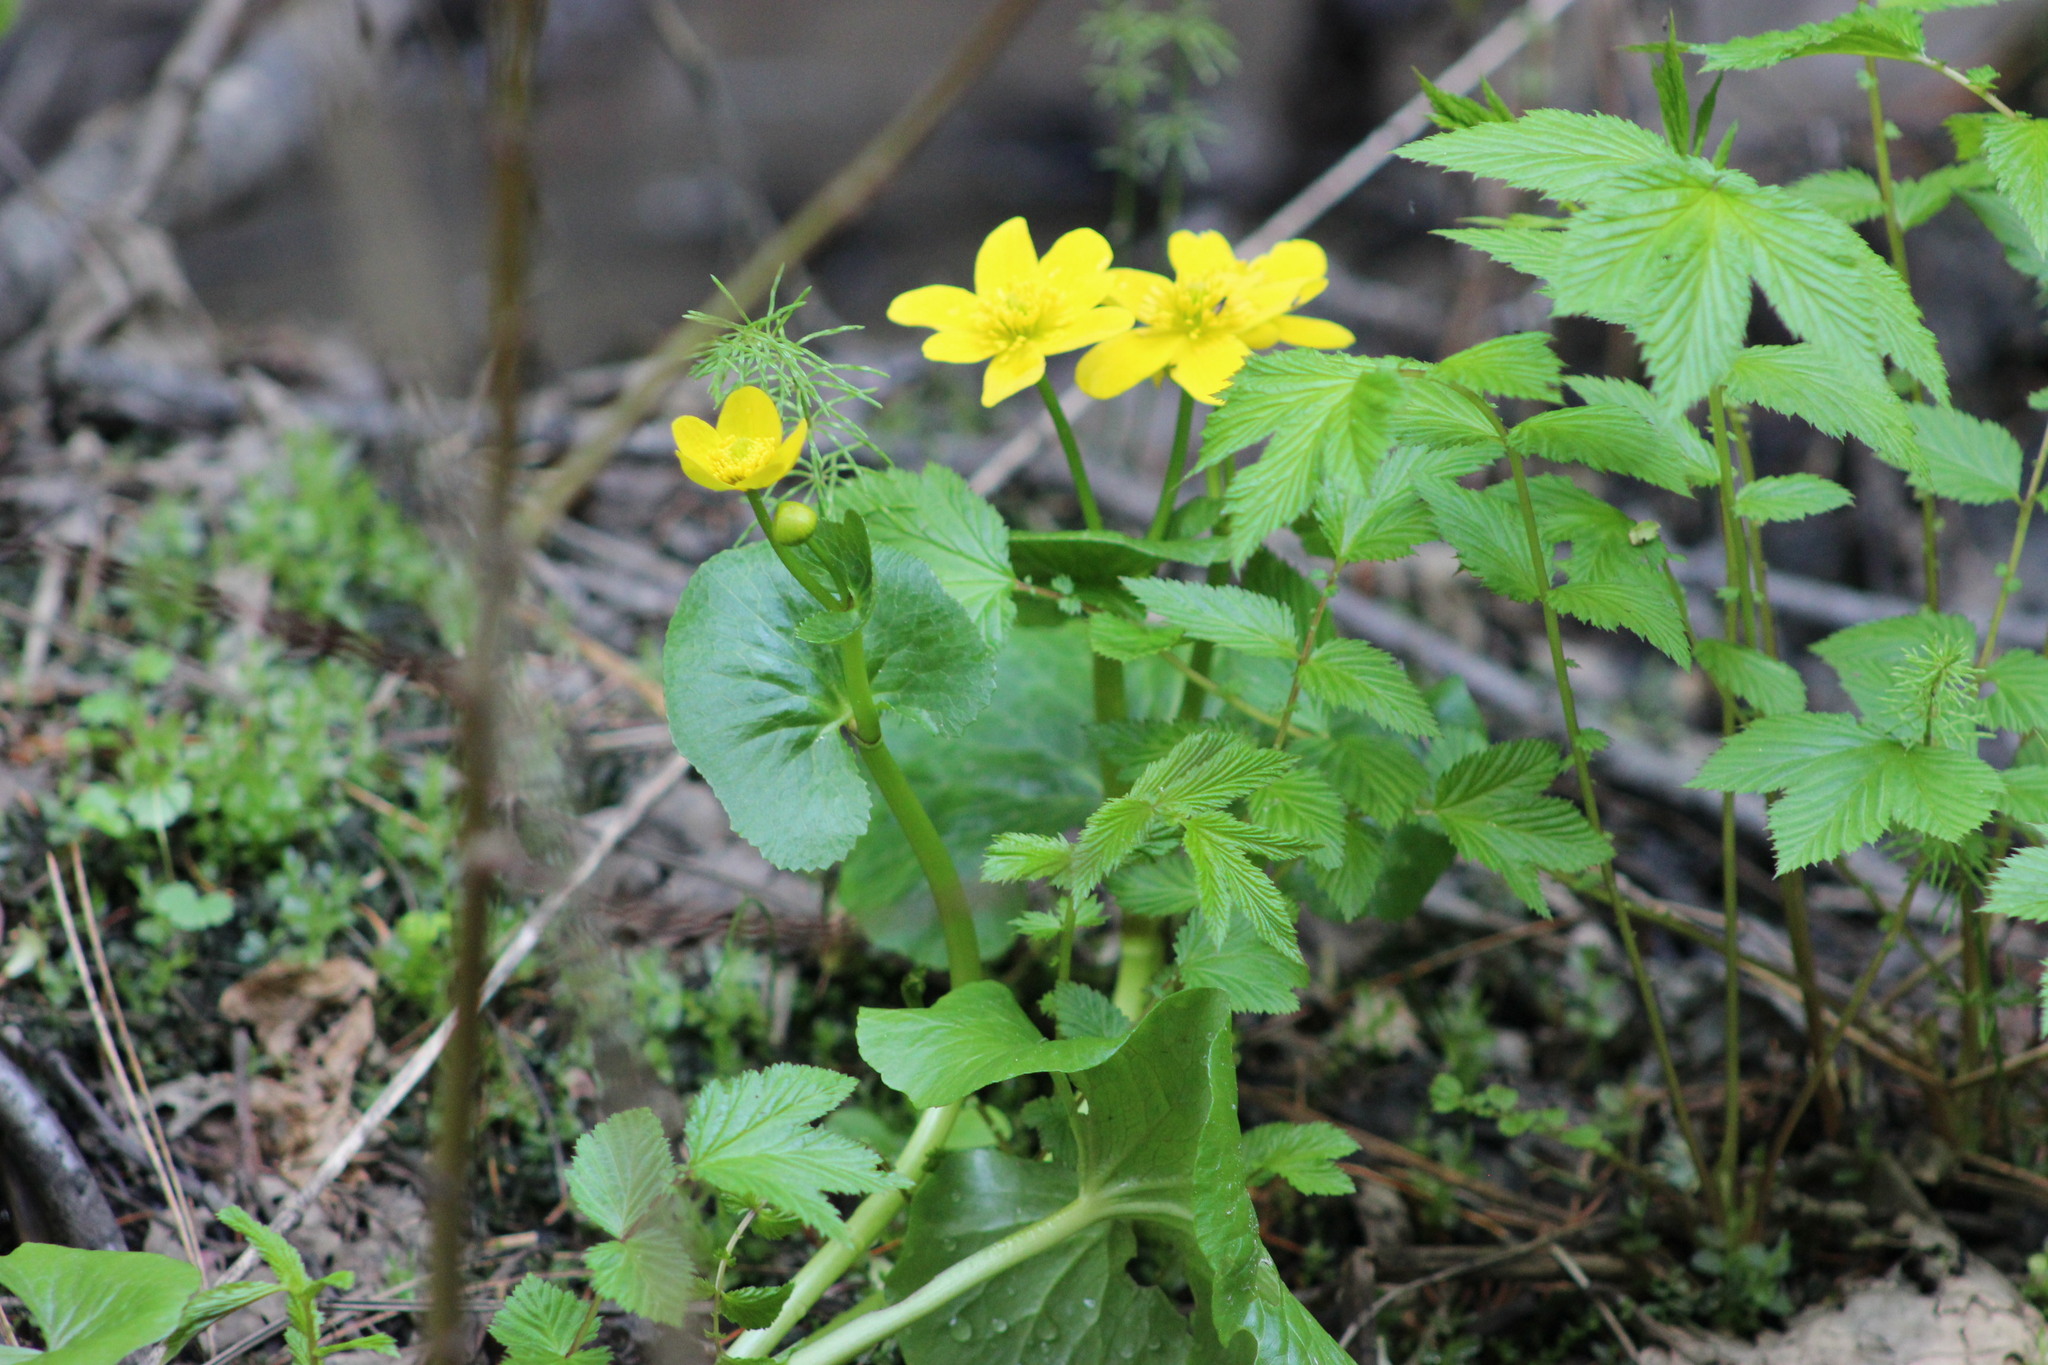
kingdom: Plantae
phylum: Tracheophyta
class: Magnoliopsida
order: Ranunculales
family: Ranunculaceae
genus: Caltha
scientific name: Caltha palustris
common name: Marsh marigold
